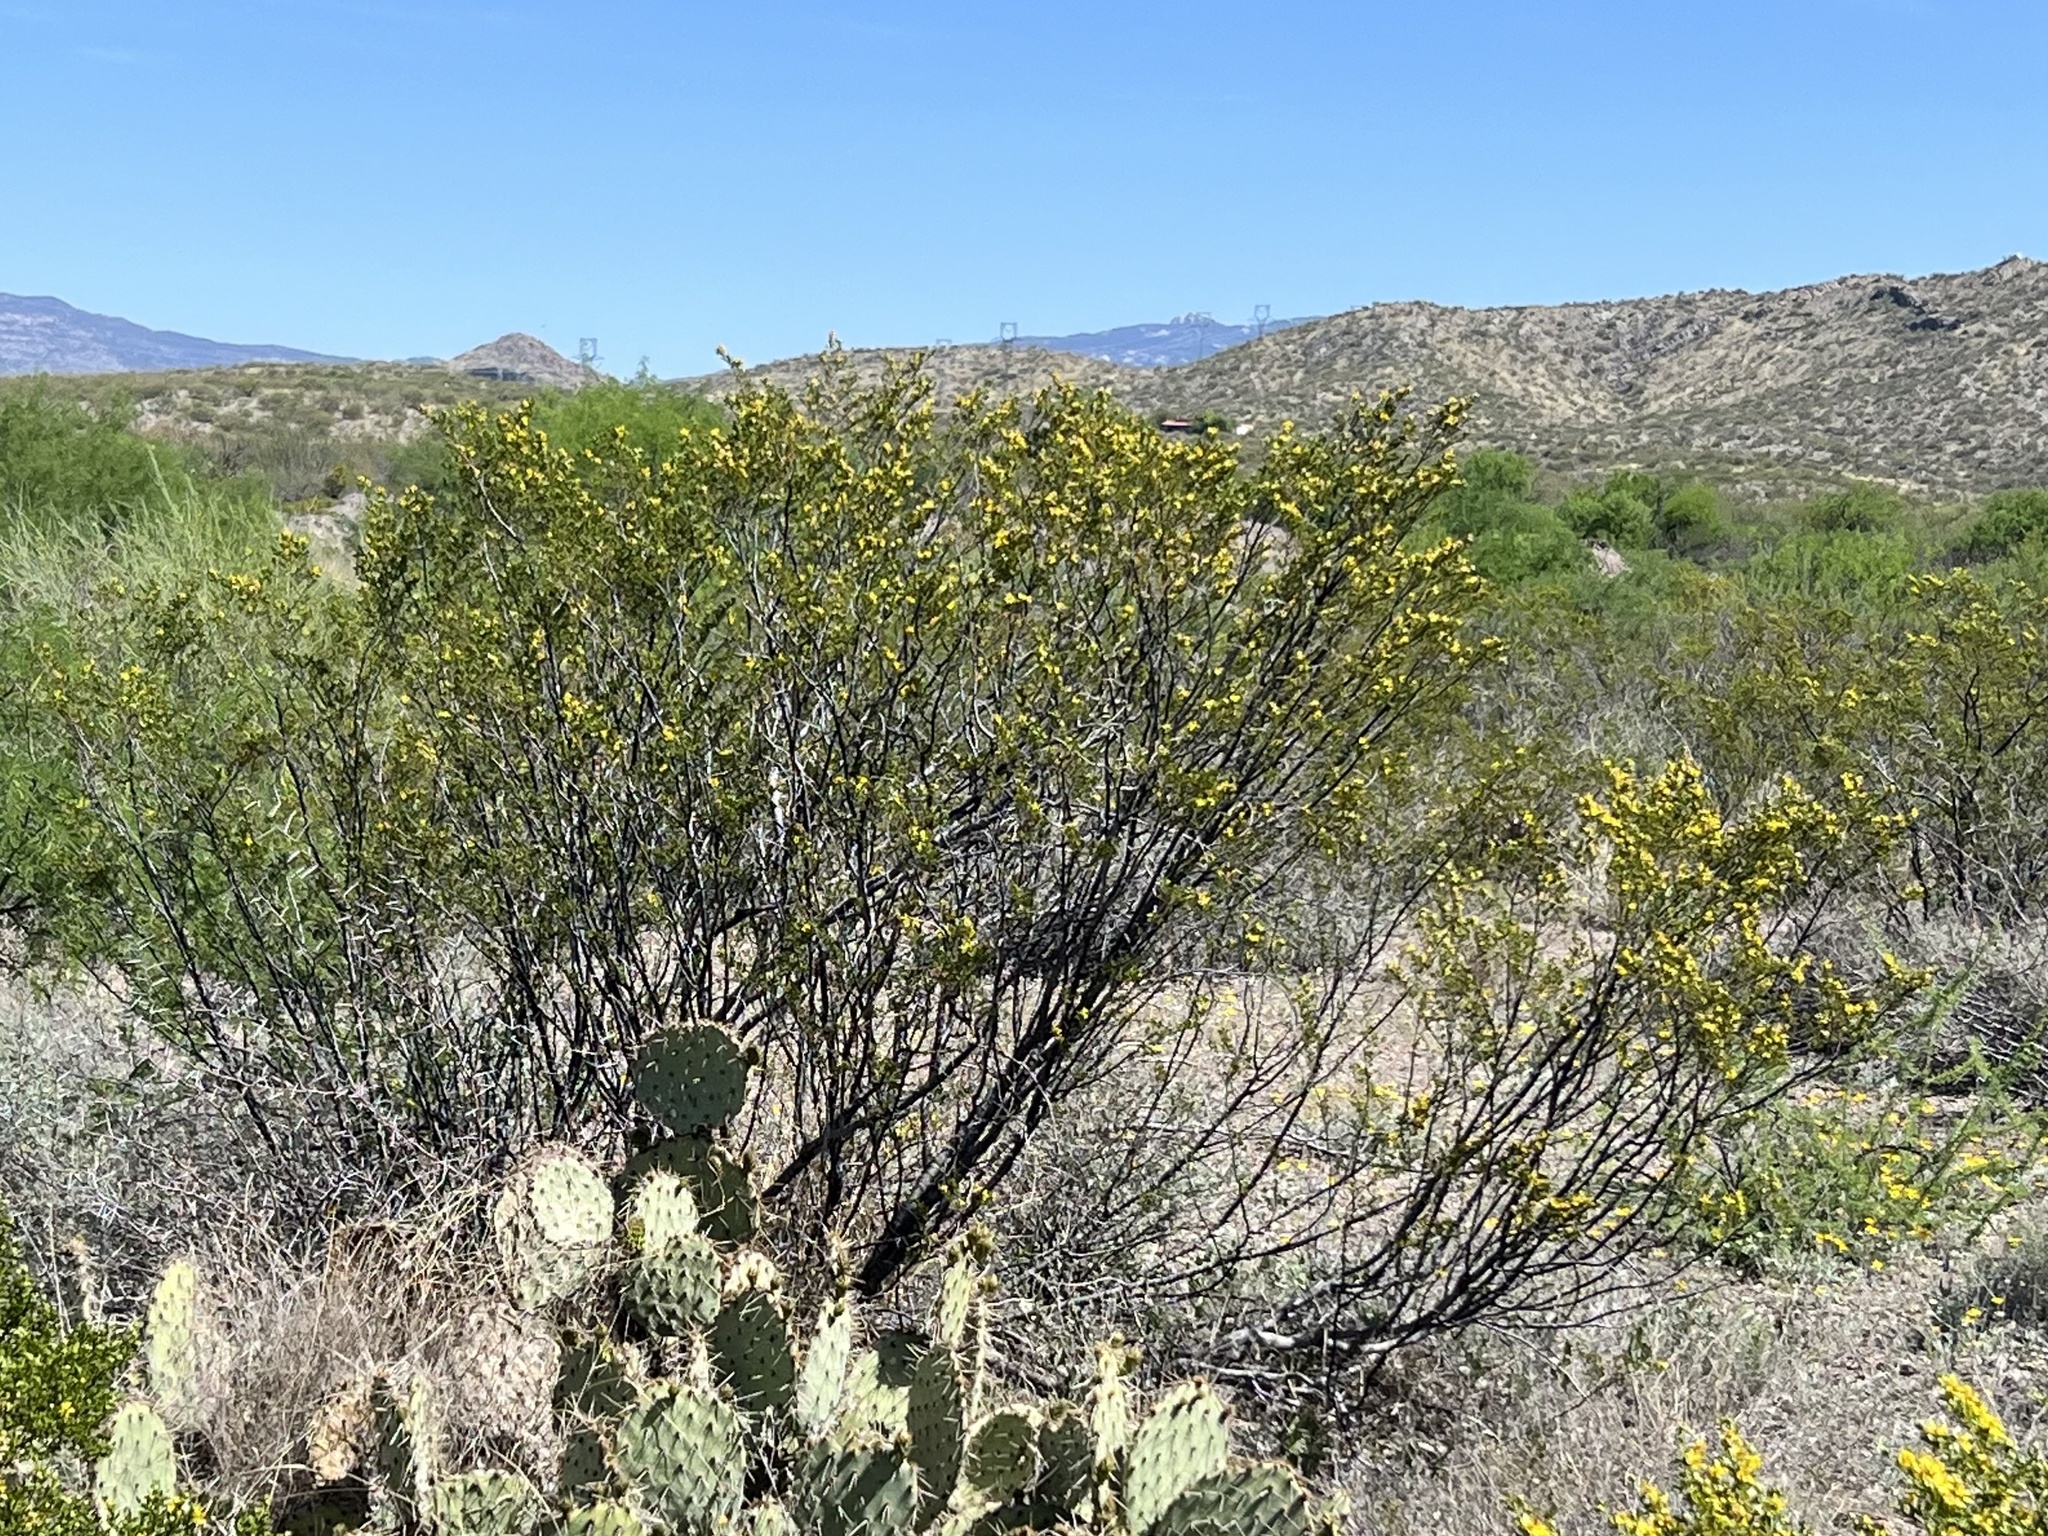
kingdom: Plantae
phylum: Tracheophyta
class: Magnoliopsida
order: Zygophyllales
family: Zygophyllaceae
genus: Larrea
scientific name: Larrea tridentata
